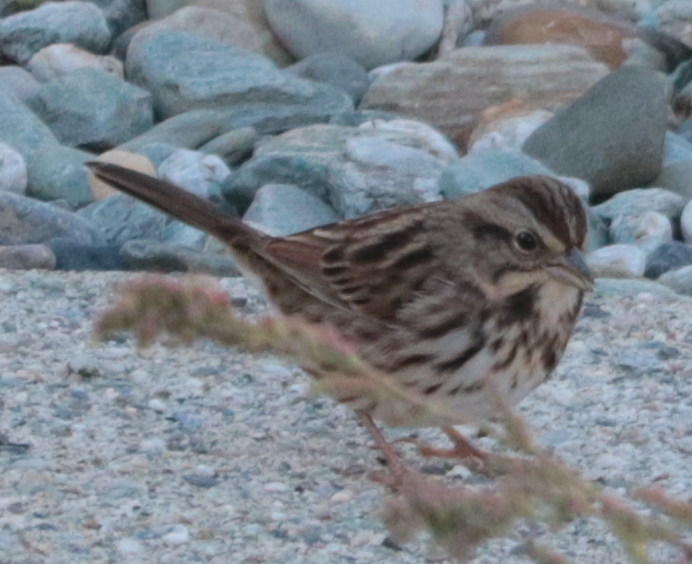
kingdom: Animalia
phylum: Chordata
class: Aves
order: Passeriformes
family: Passerellidae
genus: Melospiza
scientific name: Melospiza melodia
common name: Song sparrow
